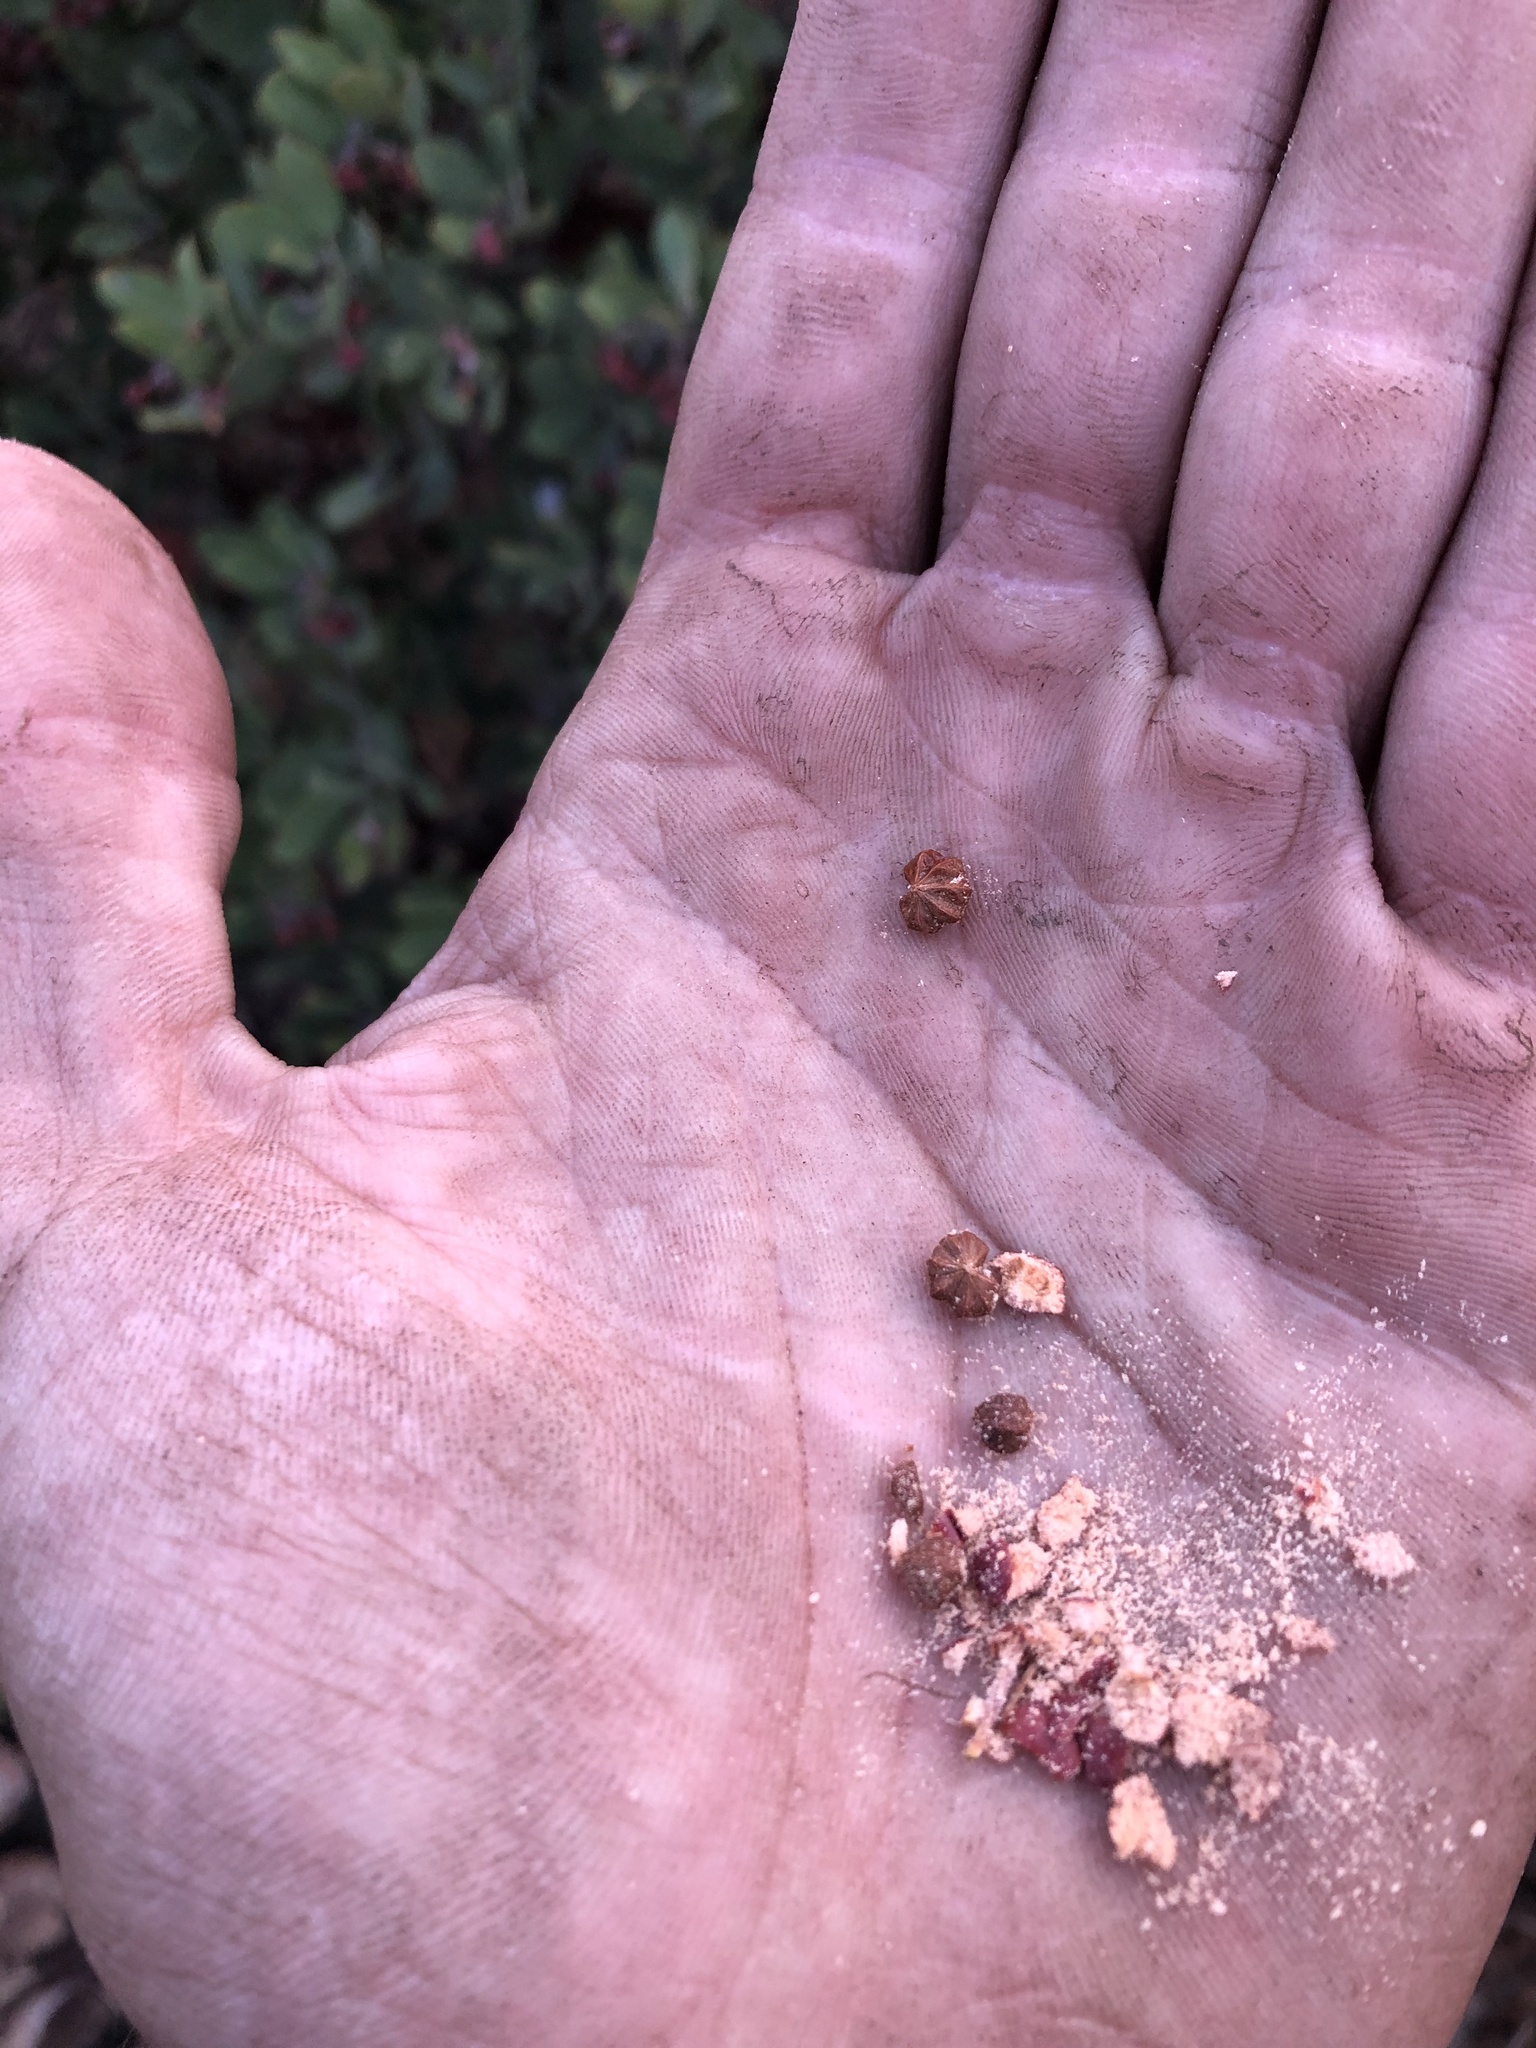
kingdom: Plantae
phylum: Tracheophyta
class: Magnoliopsida
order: Ericales
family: Ericaceae
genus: Arctostaphylos
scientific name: Arctostaphylos glandulosa
